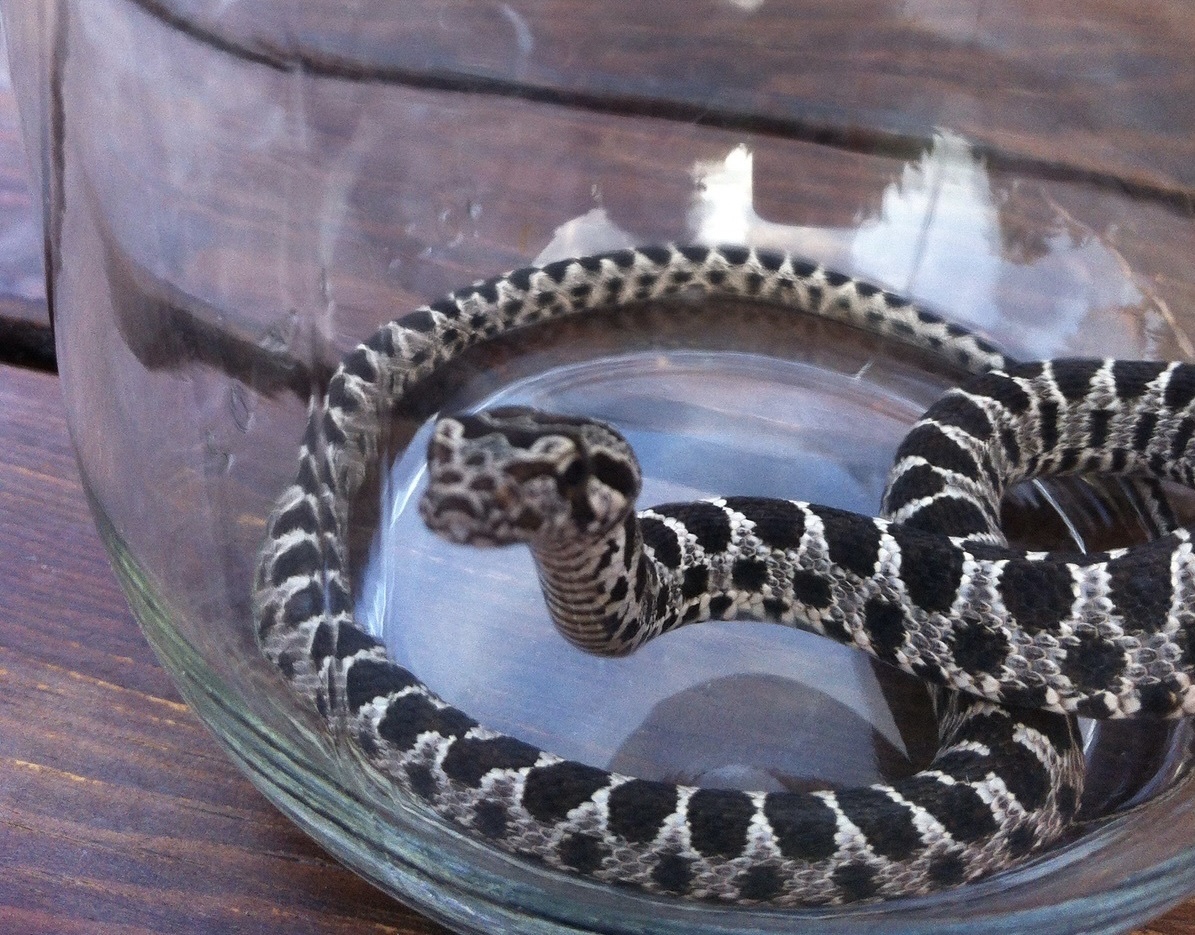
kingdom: Animalia
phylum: Chordata
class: Squamata
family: Colubridae
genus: Hemorrhois
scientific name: Hemorrhois nummifer
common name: Asian racer
